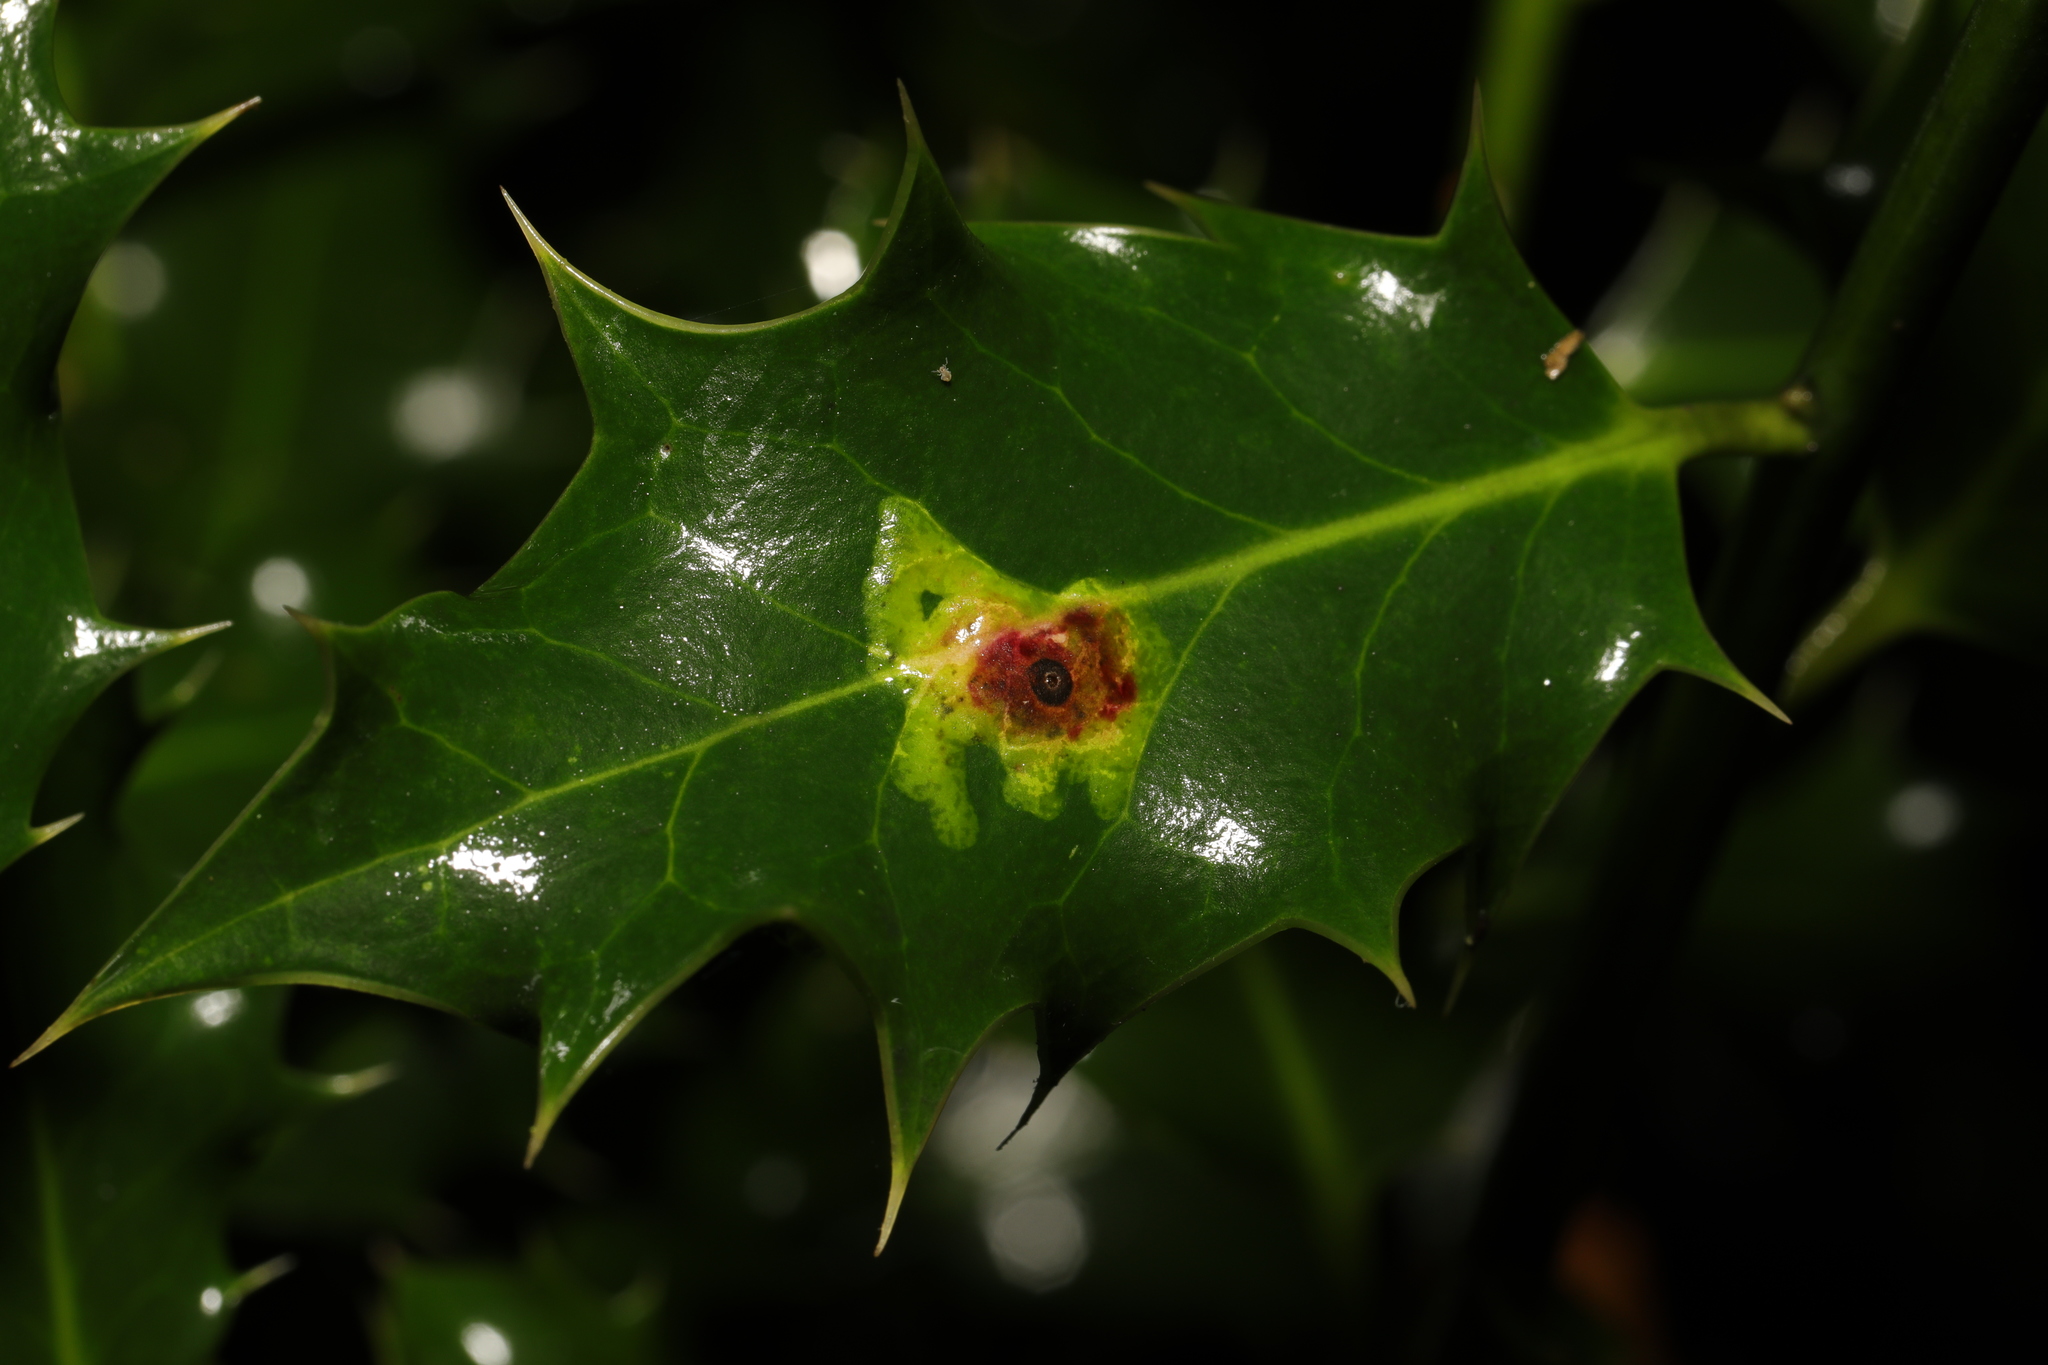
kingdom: Animalia
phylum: Arthropoda
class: Insecta
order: Diptera
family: Agromyzidae
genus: Phytomyza
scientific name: Phytomyza ilicis
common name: Holly leafminer
